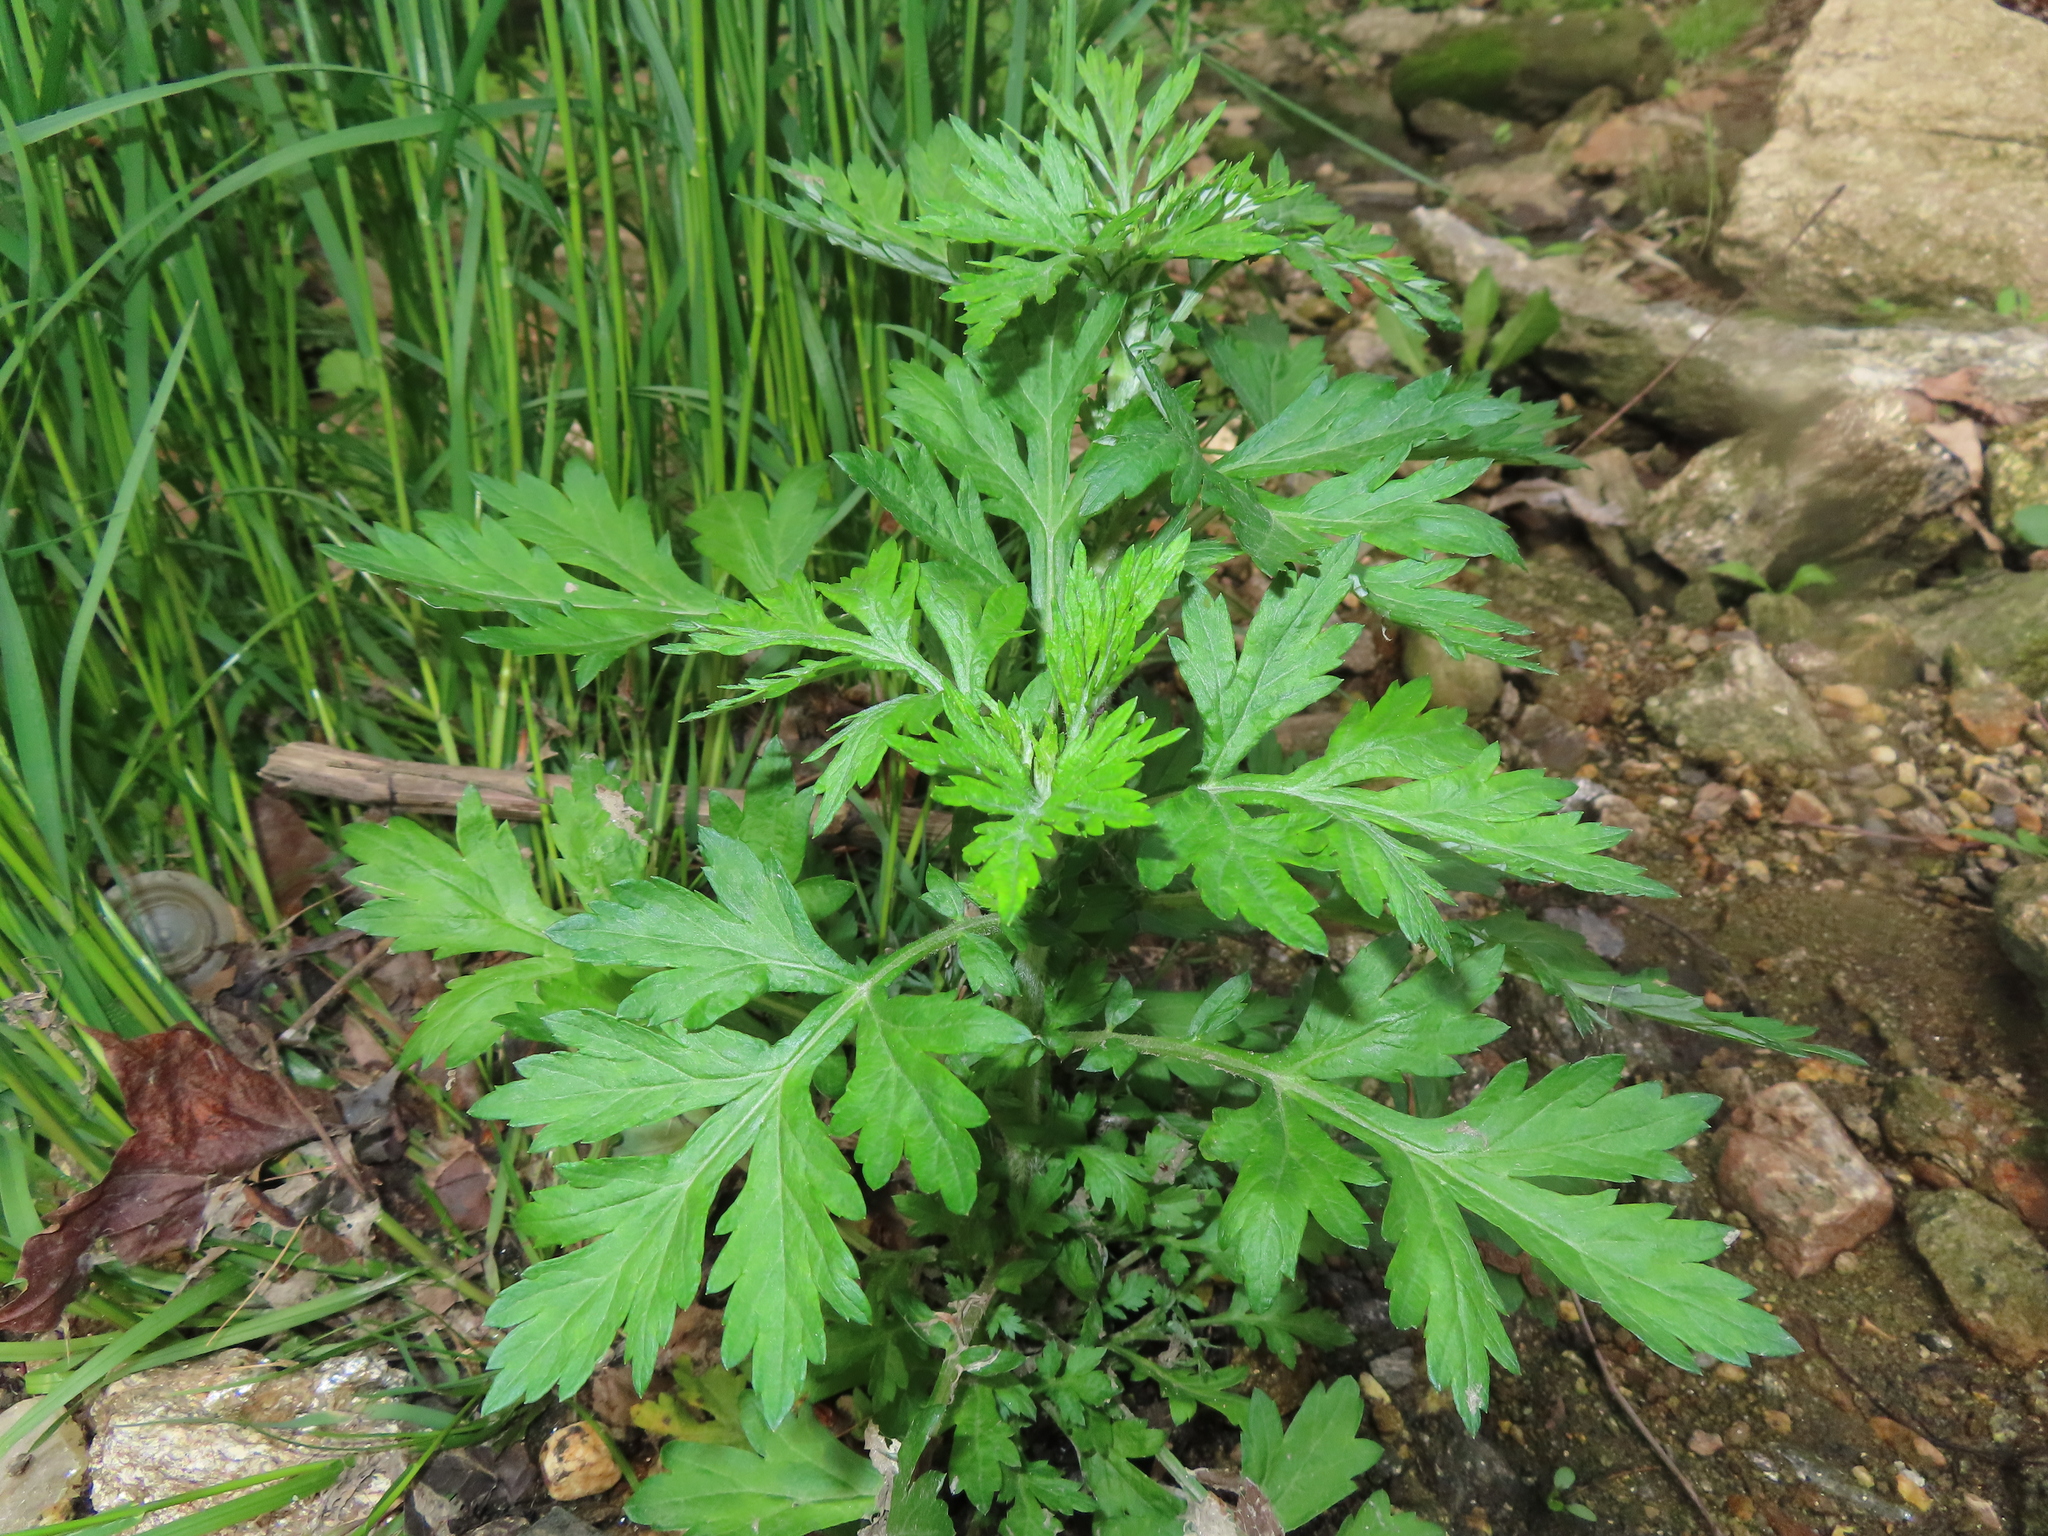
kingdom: Plantae
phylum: Tracheophyta
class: Magnoliopsida
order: Asterales
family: Asteraceae
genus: Artemisia
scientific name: Artemisia vulgaris
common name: Mugwort
